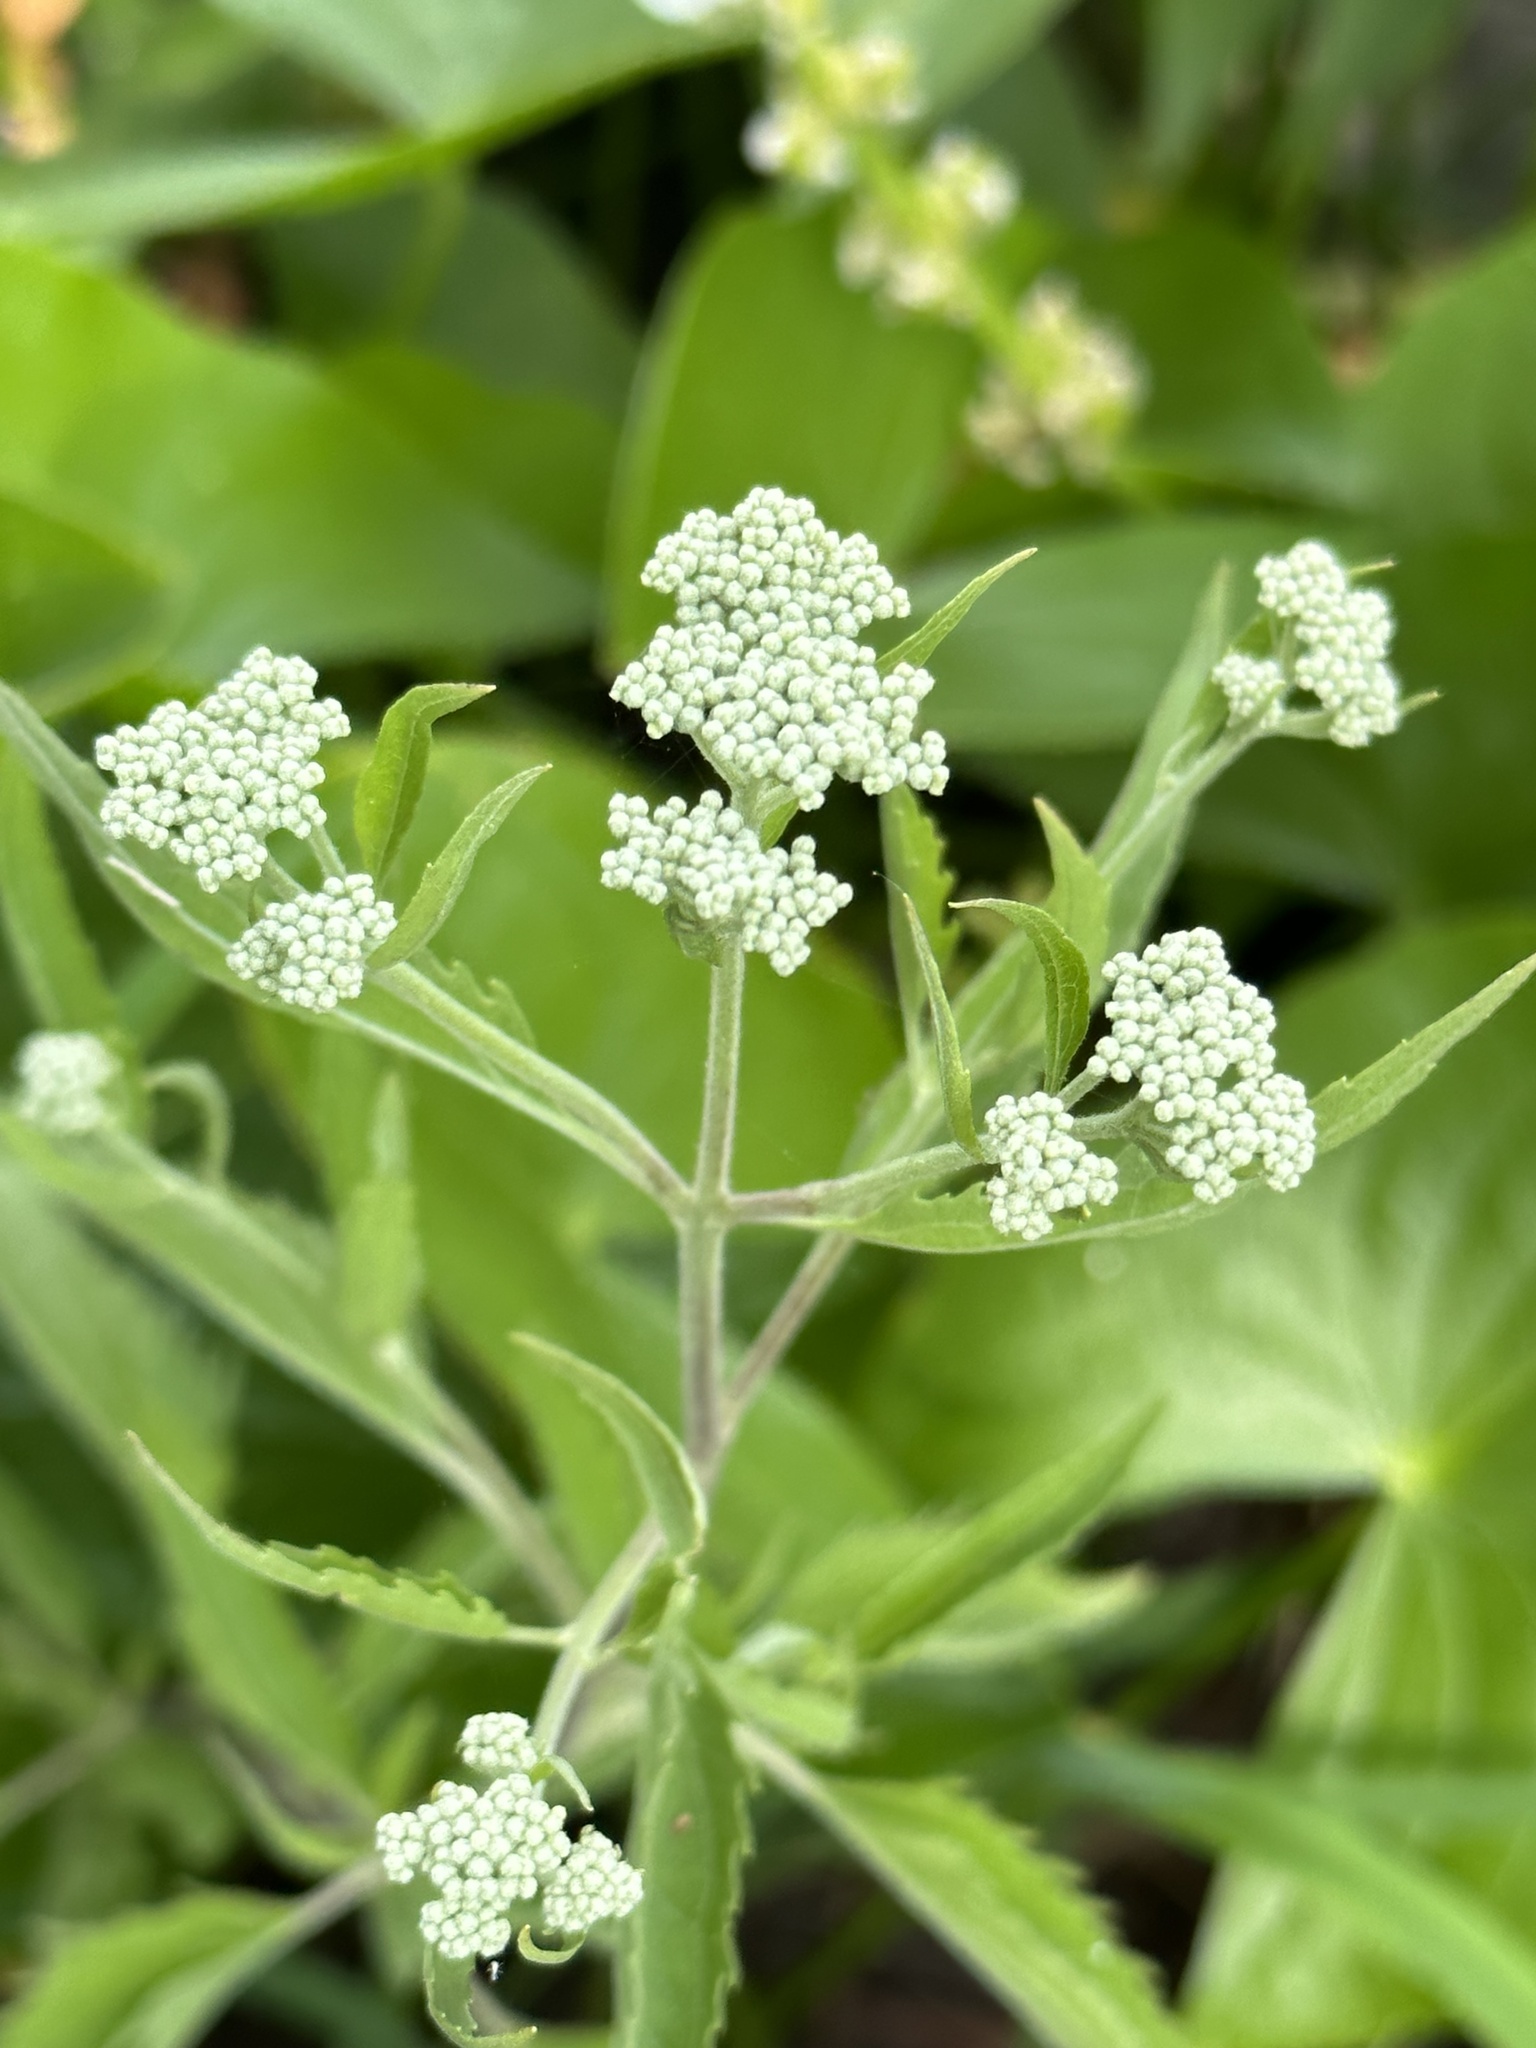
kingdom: Plantae
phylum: Tracheophyta
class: Magnoliopsida
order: Asterales
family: Asteraceae
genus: Eupatorium
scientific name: Eupatorium serotinum
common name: Late boneset
